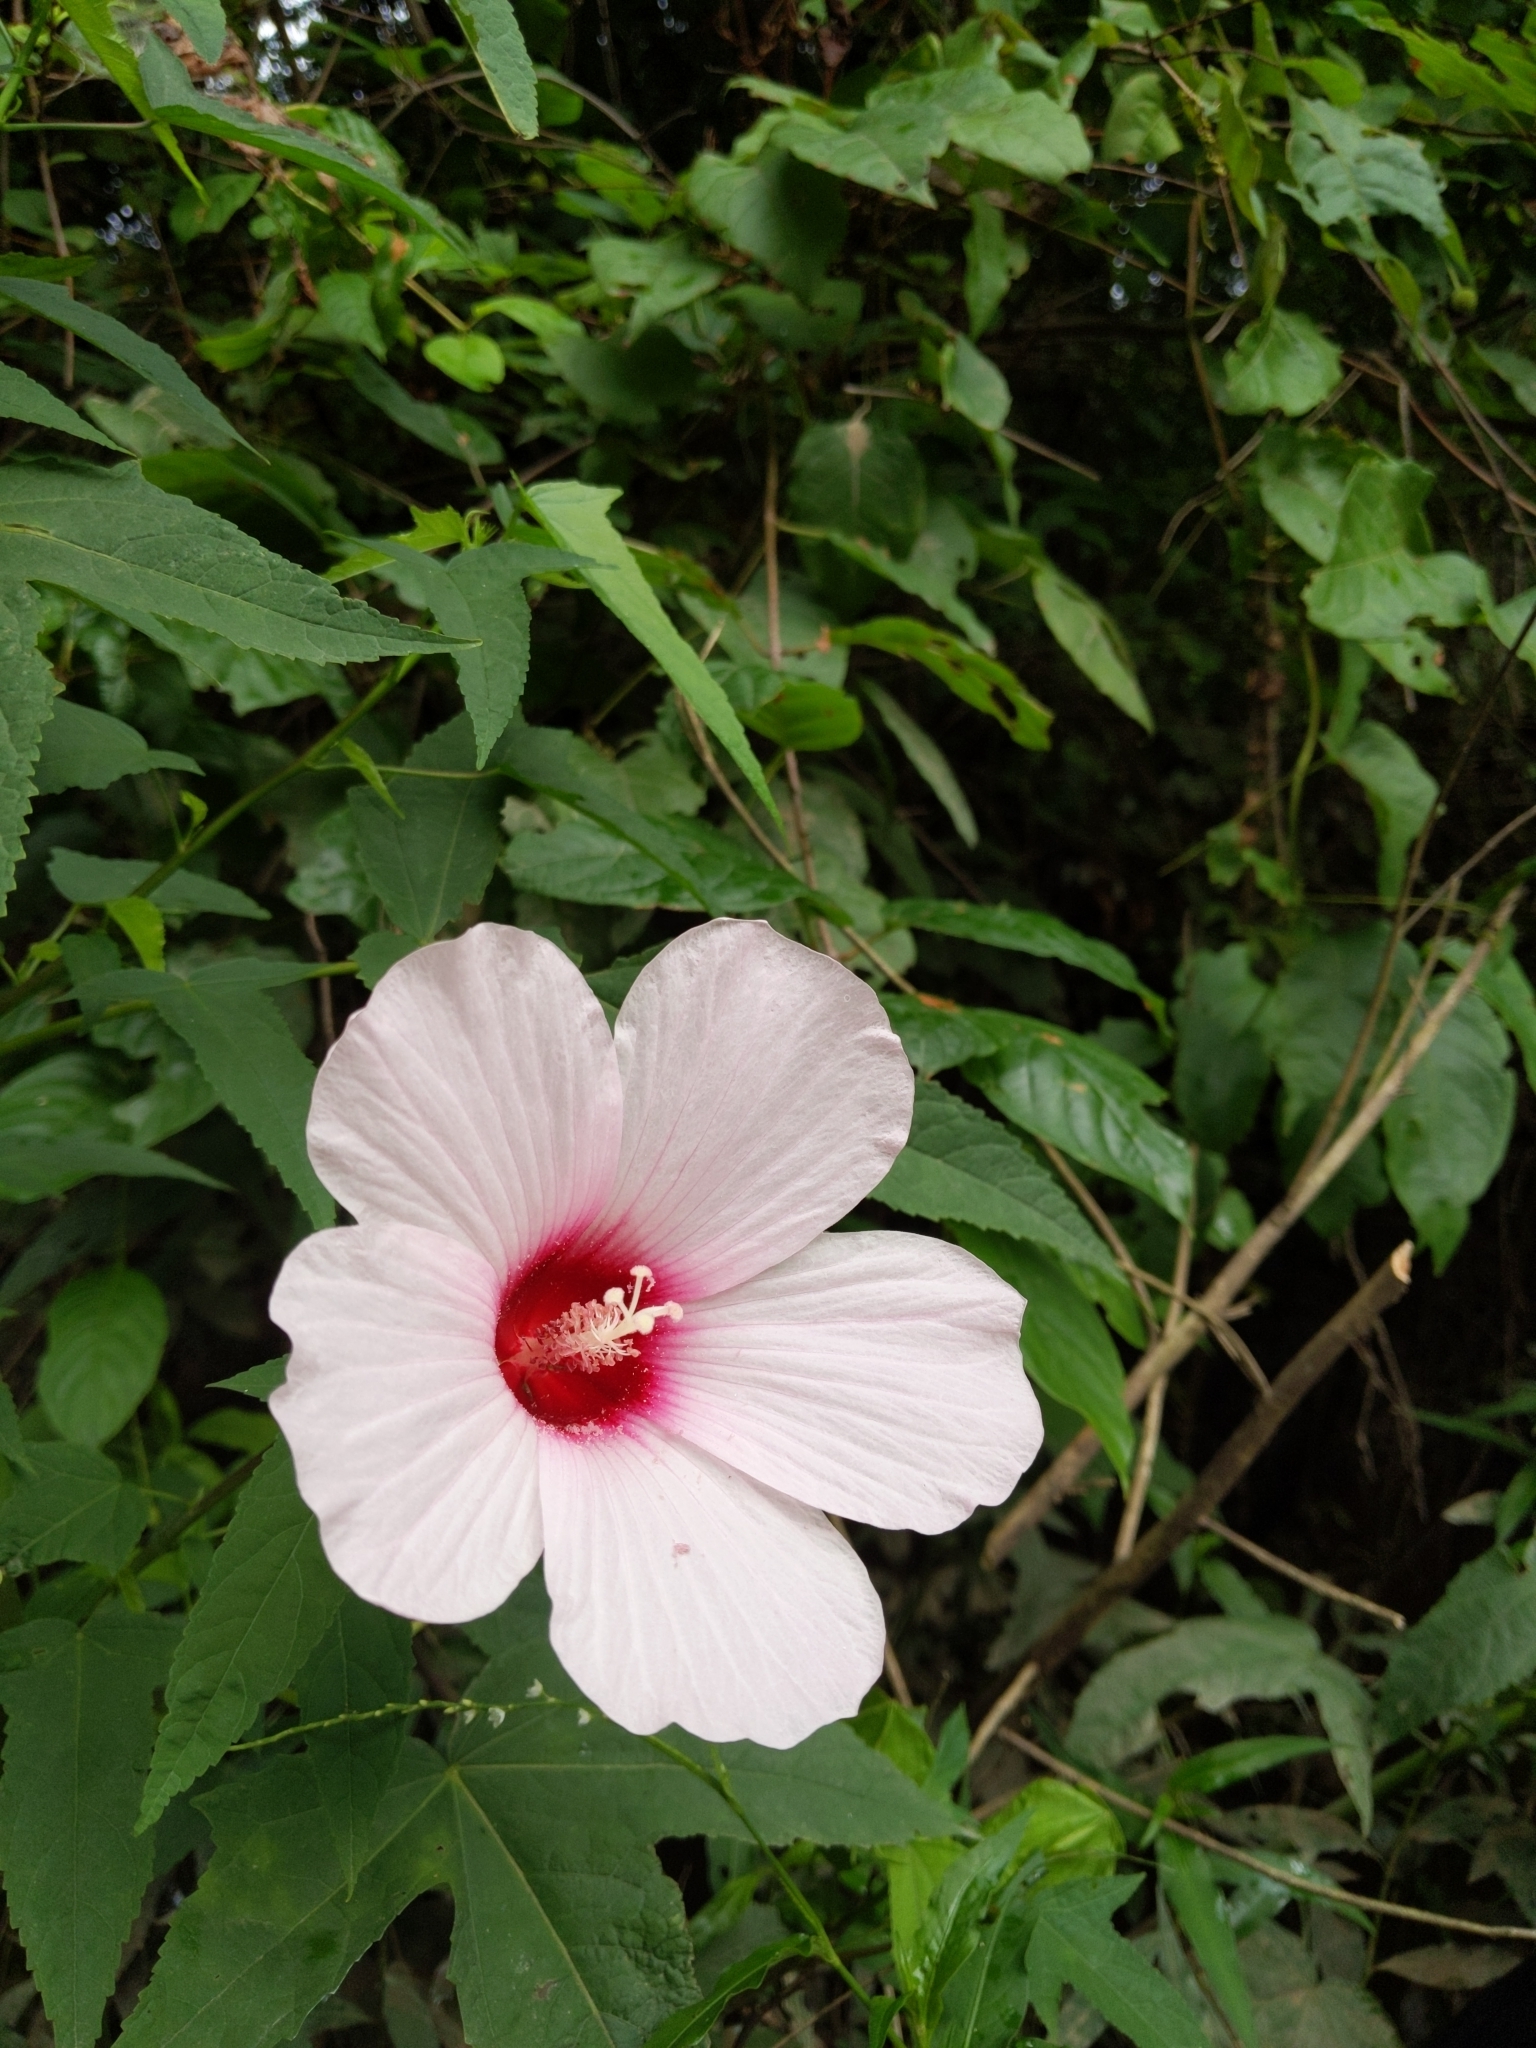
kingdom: Plantae
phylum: Tracheophyta
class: Magnoliopsida
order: Malvales
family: Malvaceae
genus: Hibiscus
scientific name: Hibiscus laevis
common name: Scarlet rose-mallow
